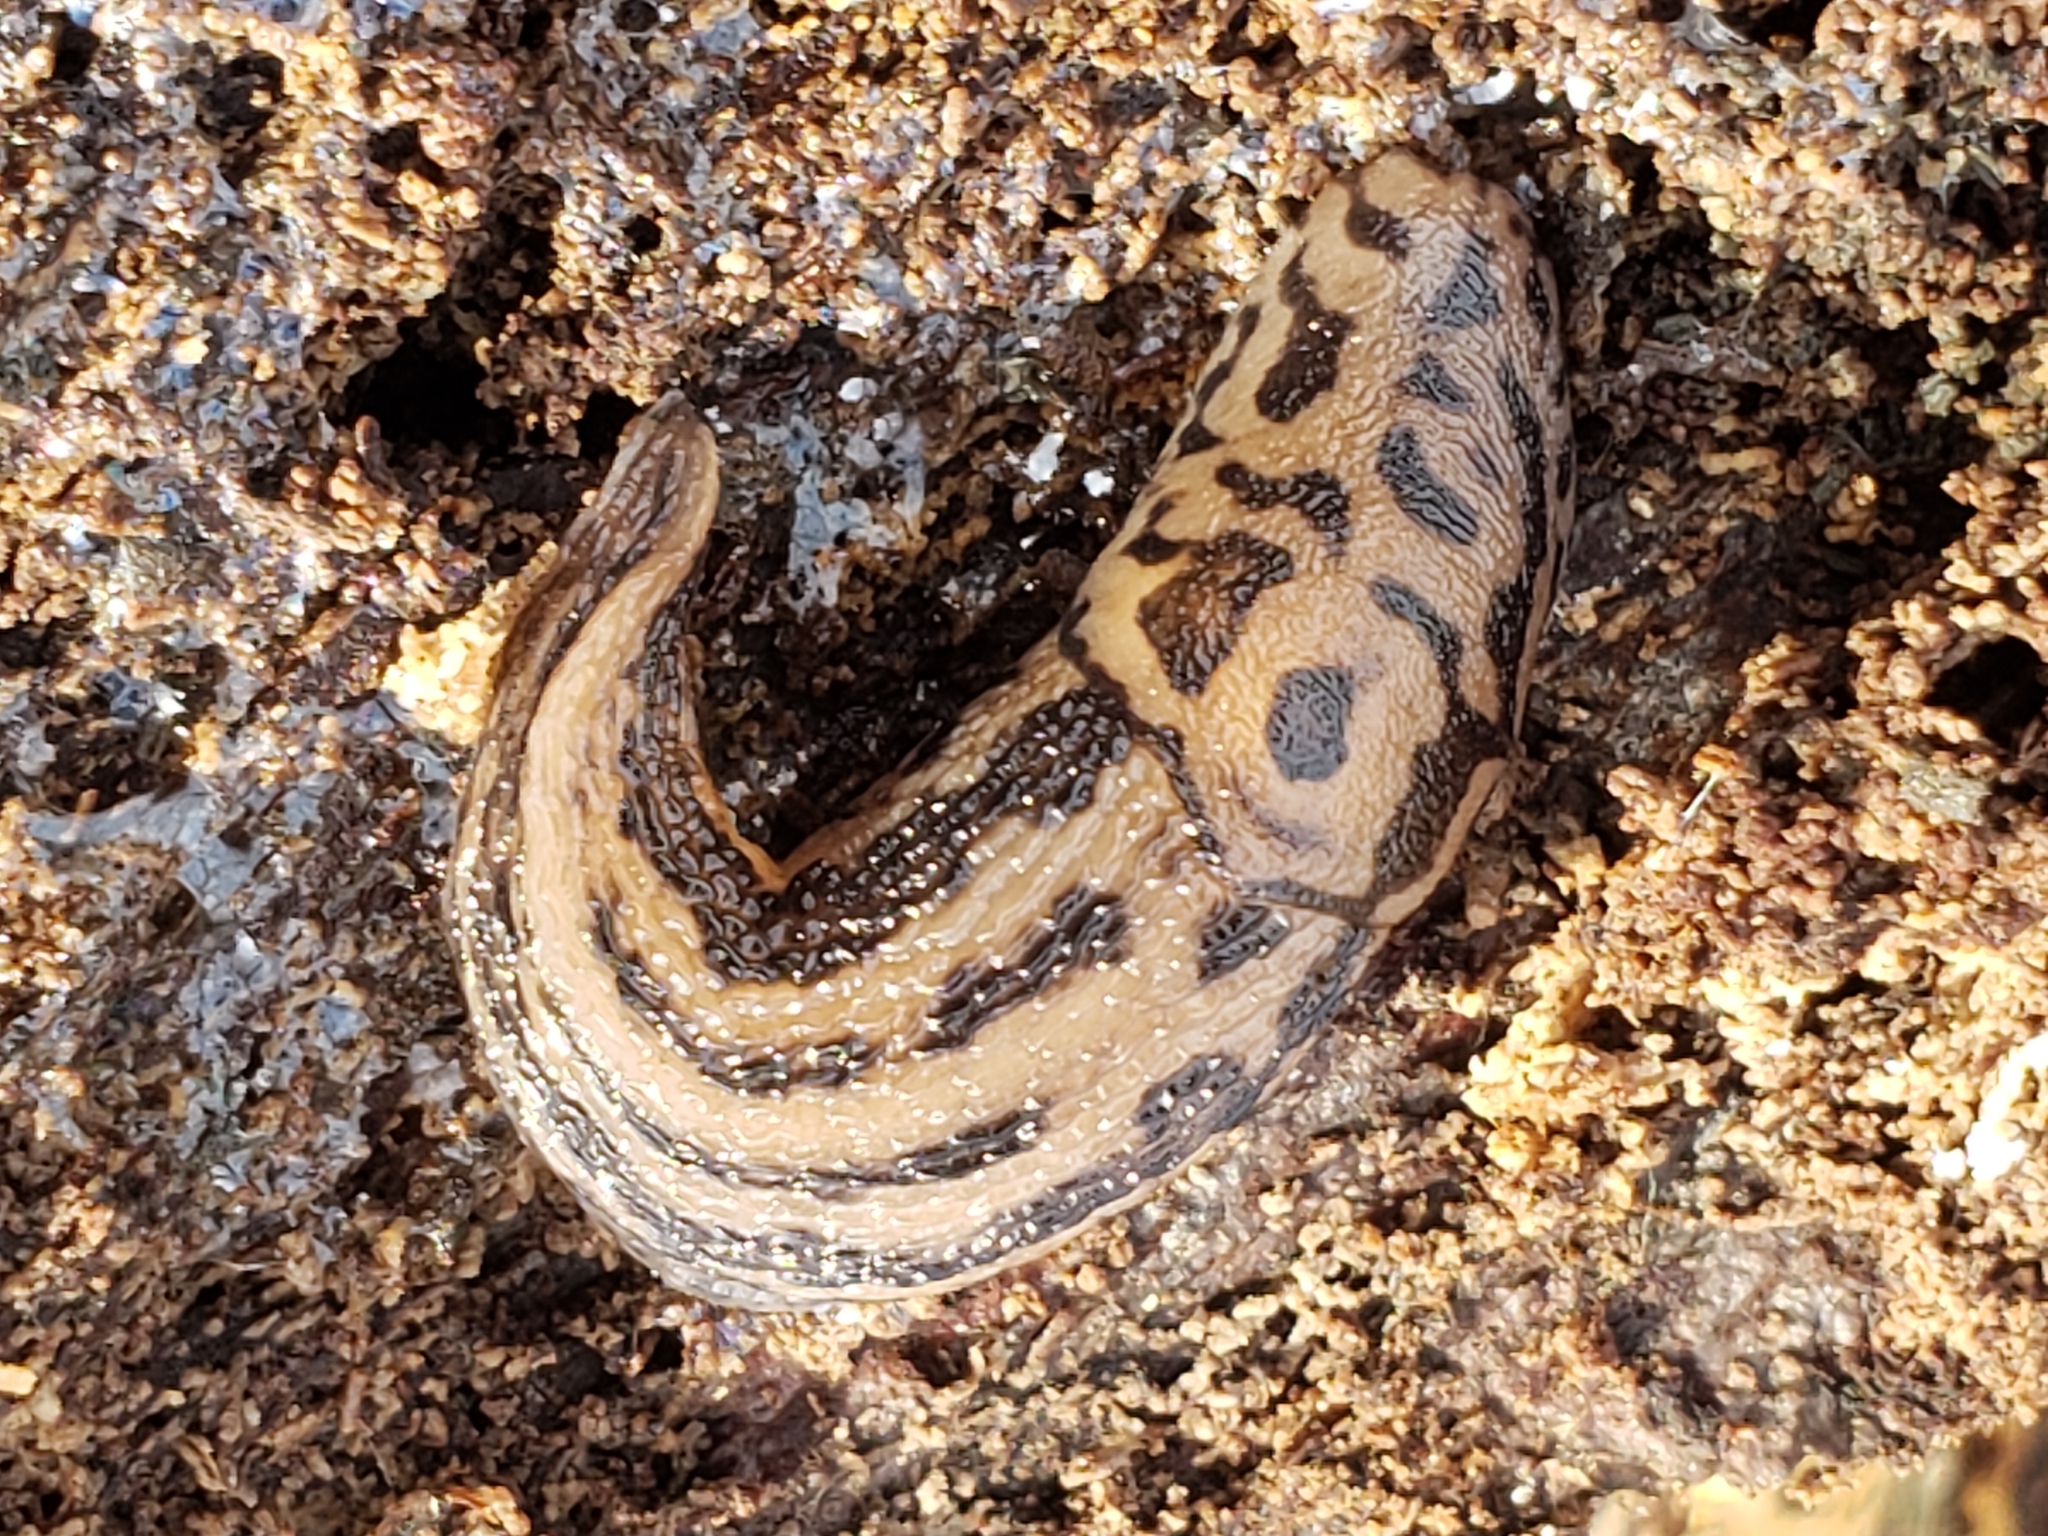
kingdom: Animalia
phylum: Mollusca
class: Gastropoda
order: Stylommatophora
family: Limacidae
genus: Limax
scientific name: Limax maximus
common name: Great grey slug
